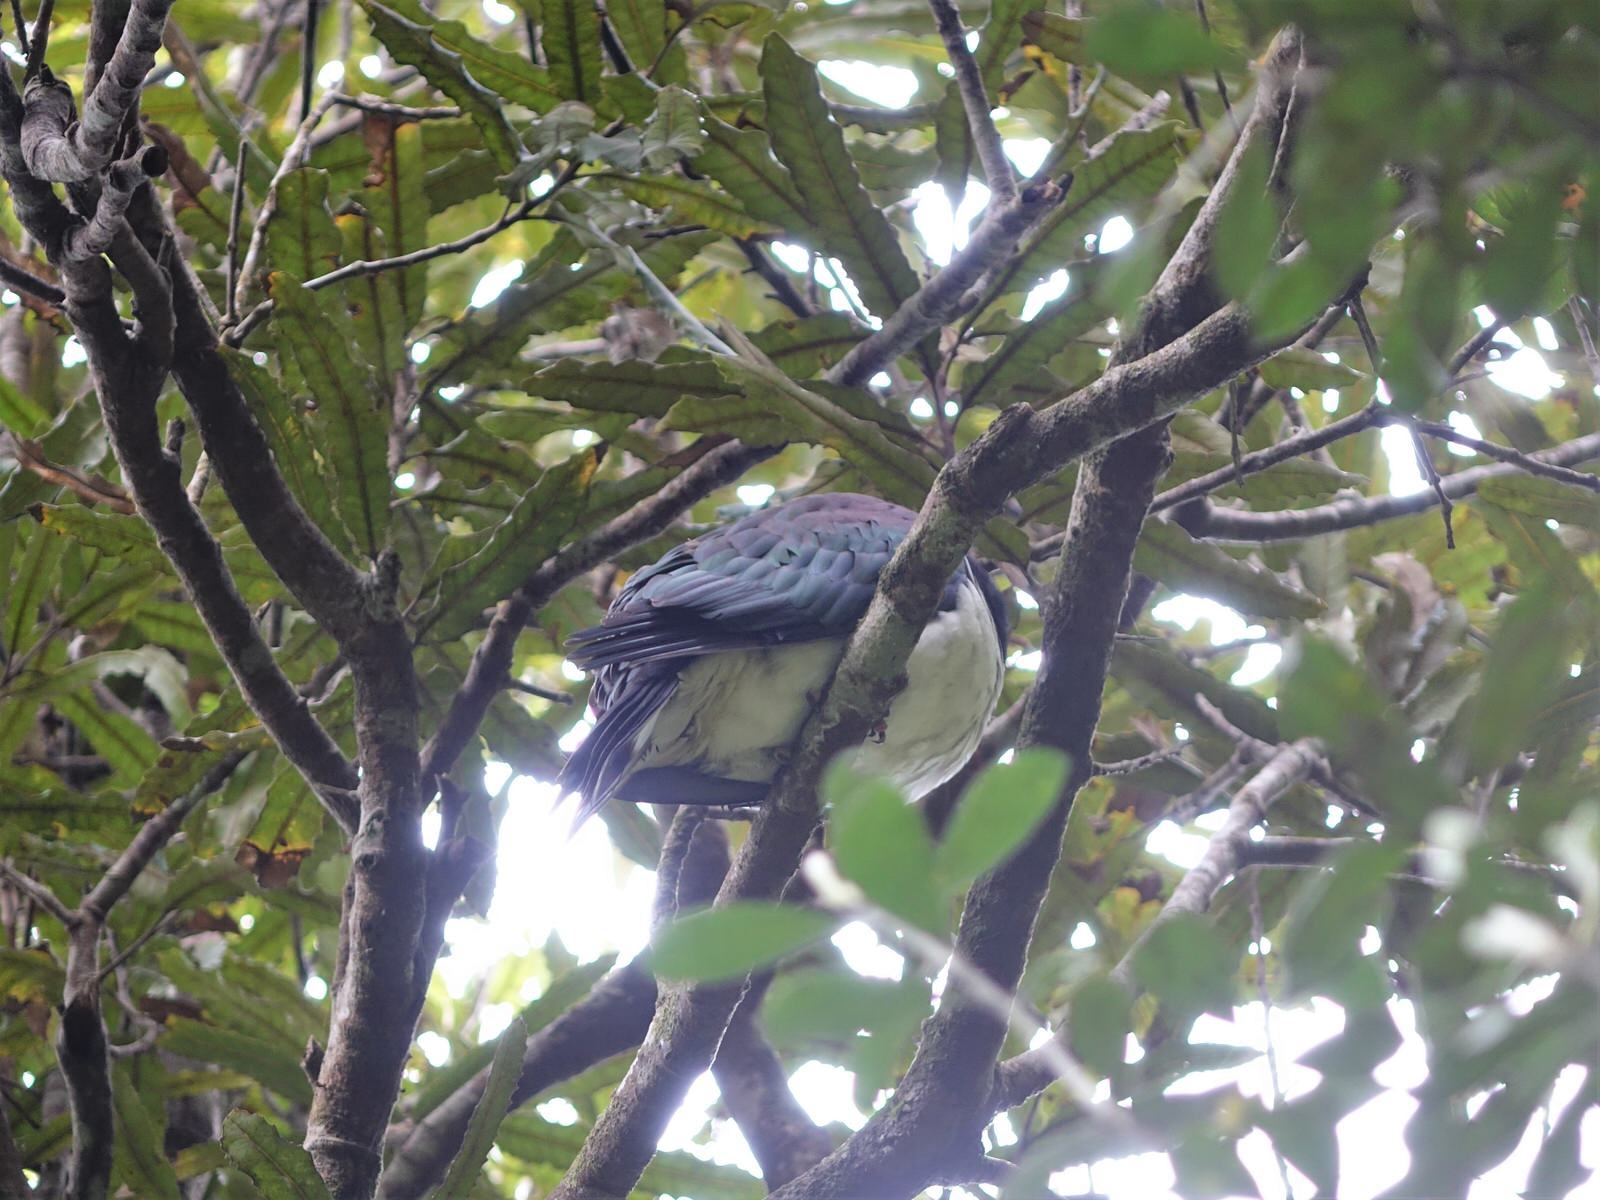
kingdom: Animalia
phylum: Chordata
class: Aves
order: Columbiformes
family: Columbidae
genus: Hemiphaga
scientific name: Hemiphaga novaeseelandiae
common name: New zealand pigeon
